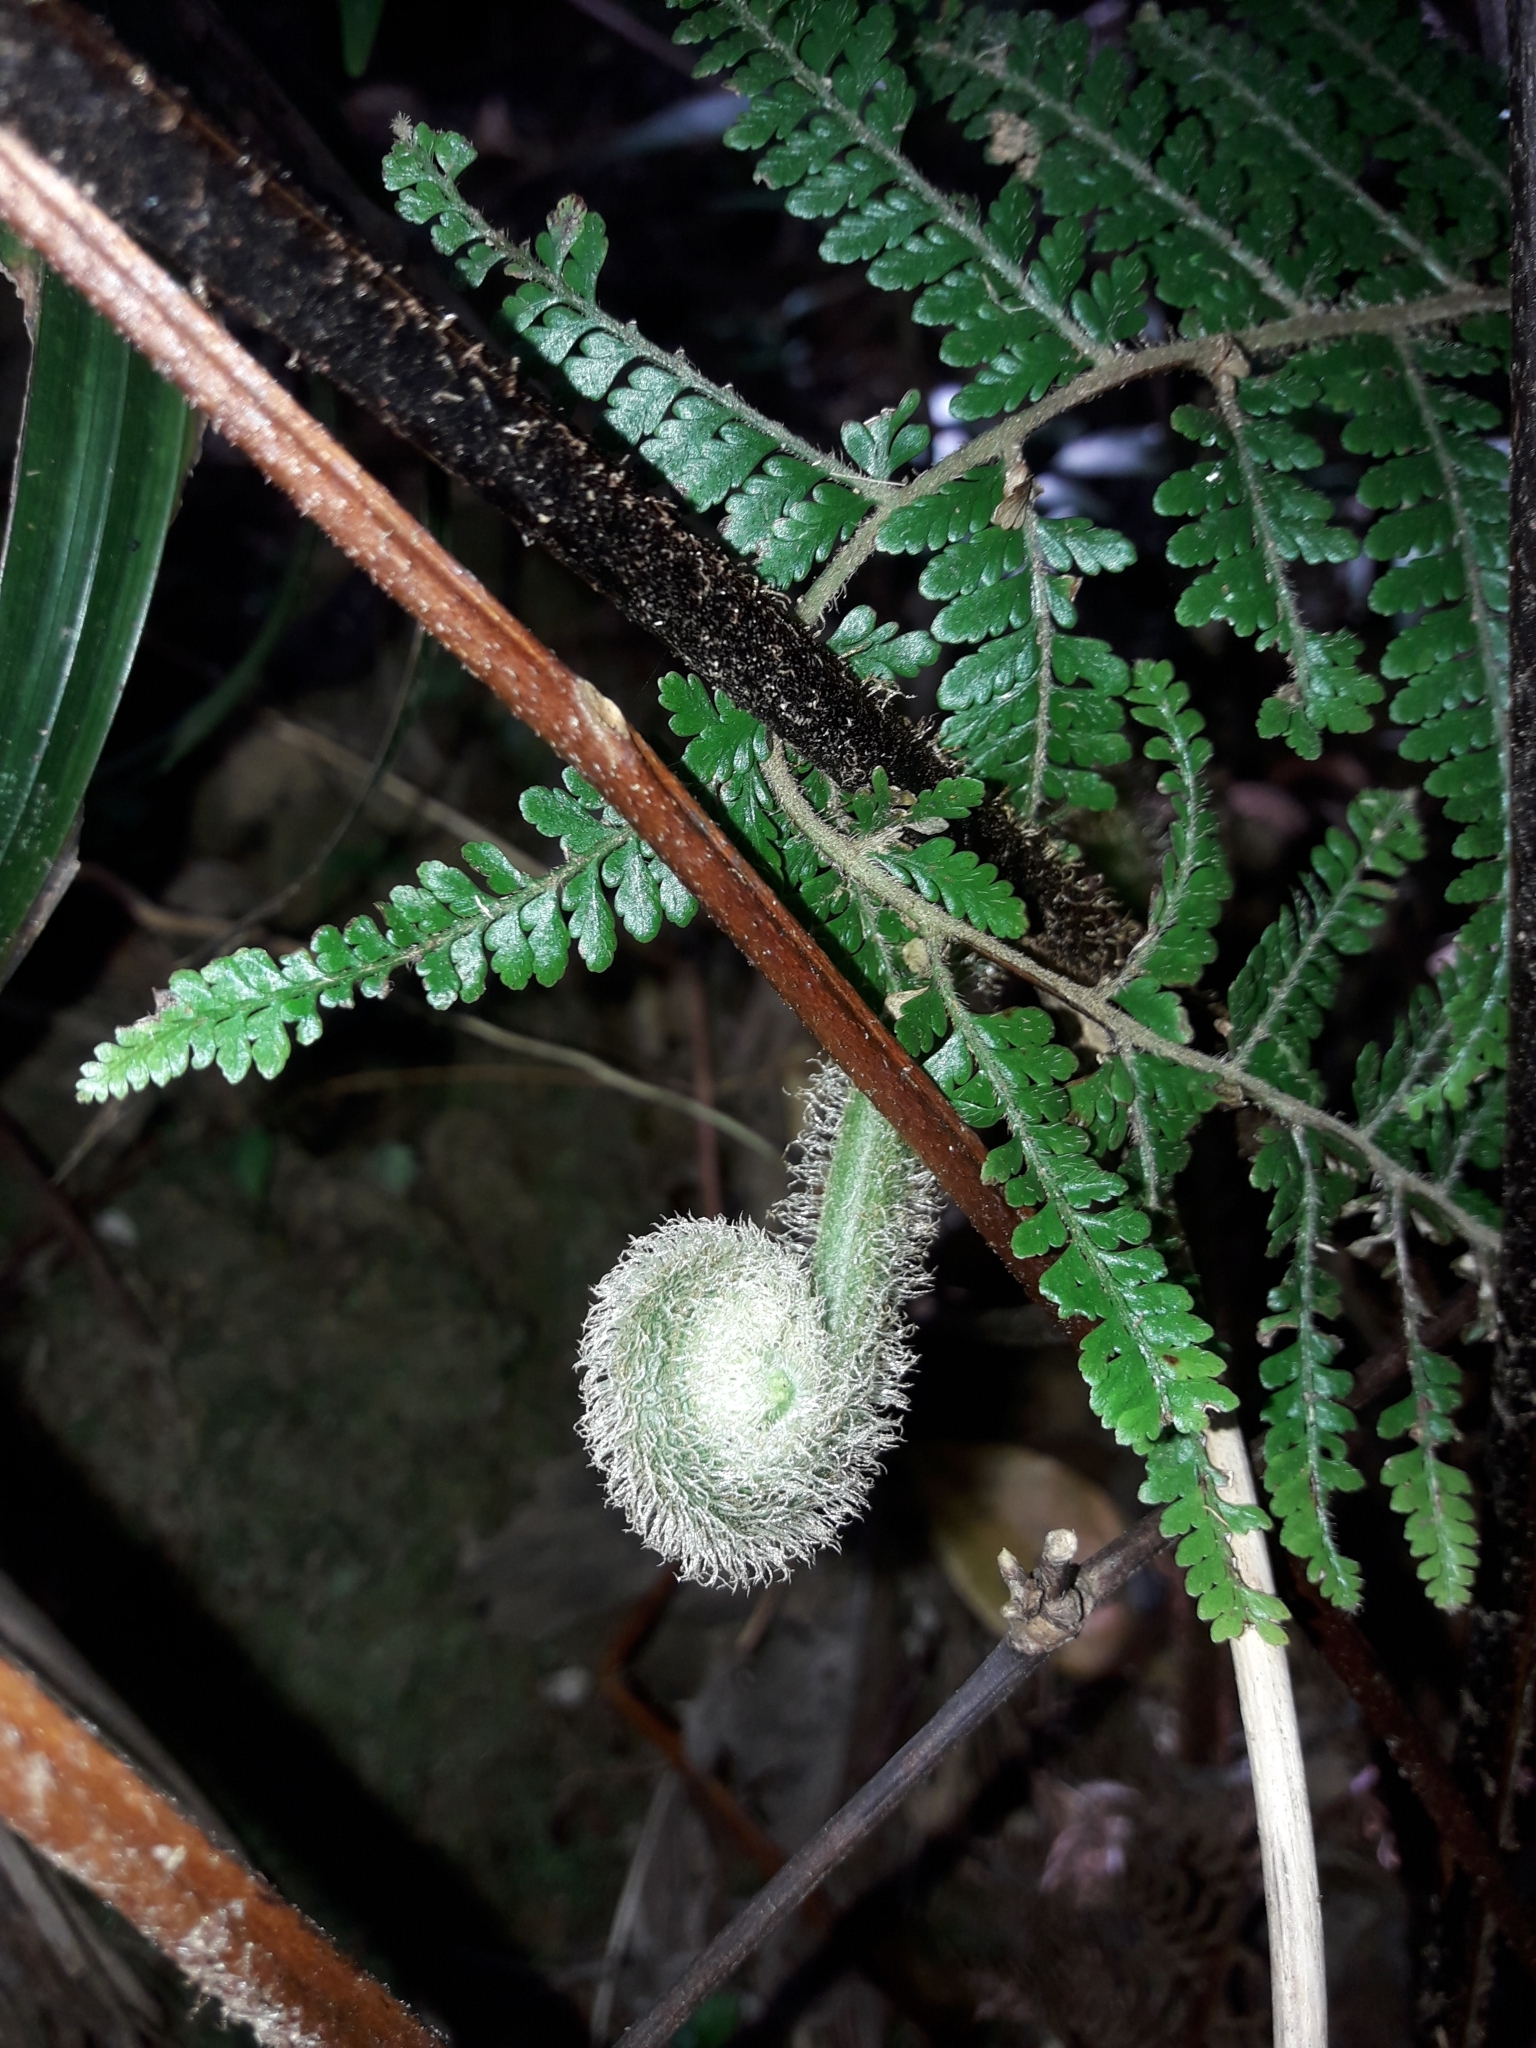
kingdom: Plantae
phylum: Tracheophyta
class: Polypodiopsida
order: Polypodiales
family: Dennstaedtiaceae
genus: Dennstaedtia
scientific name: Dennstaedtia maxima
